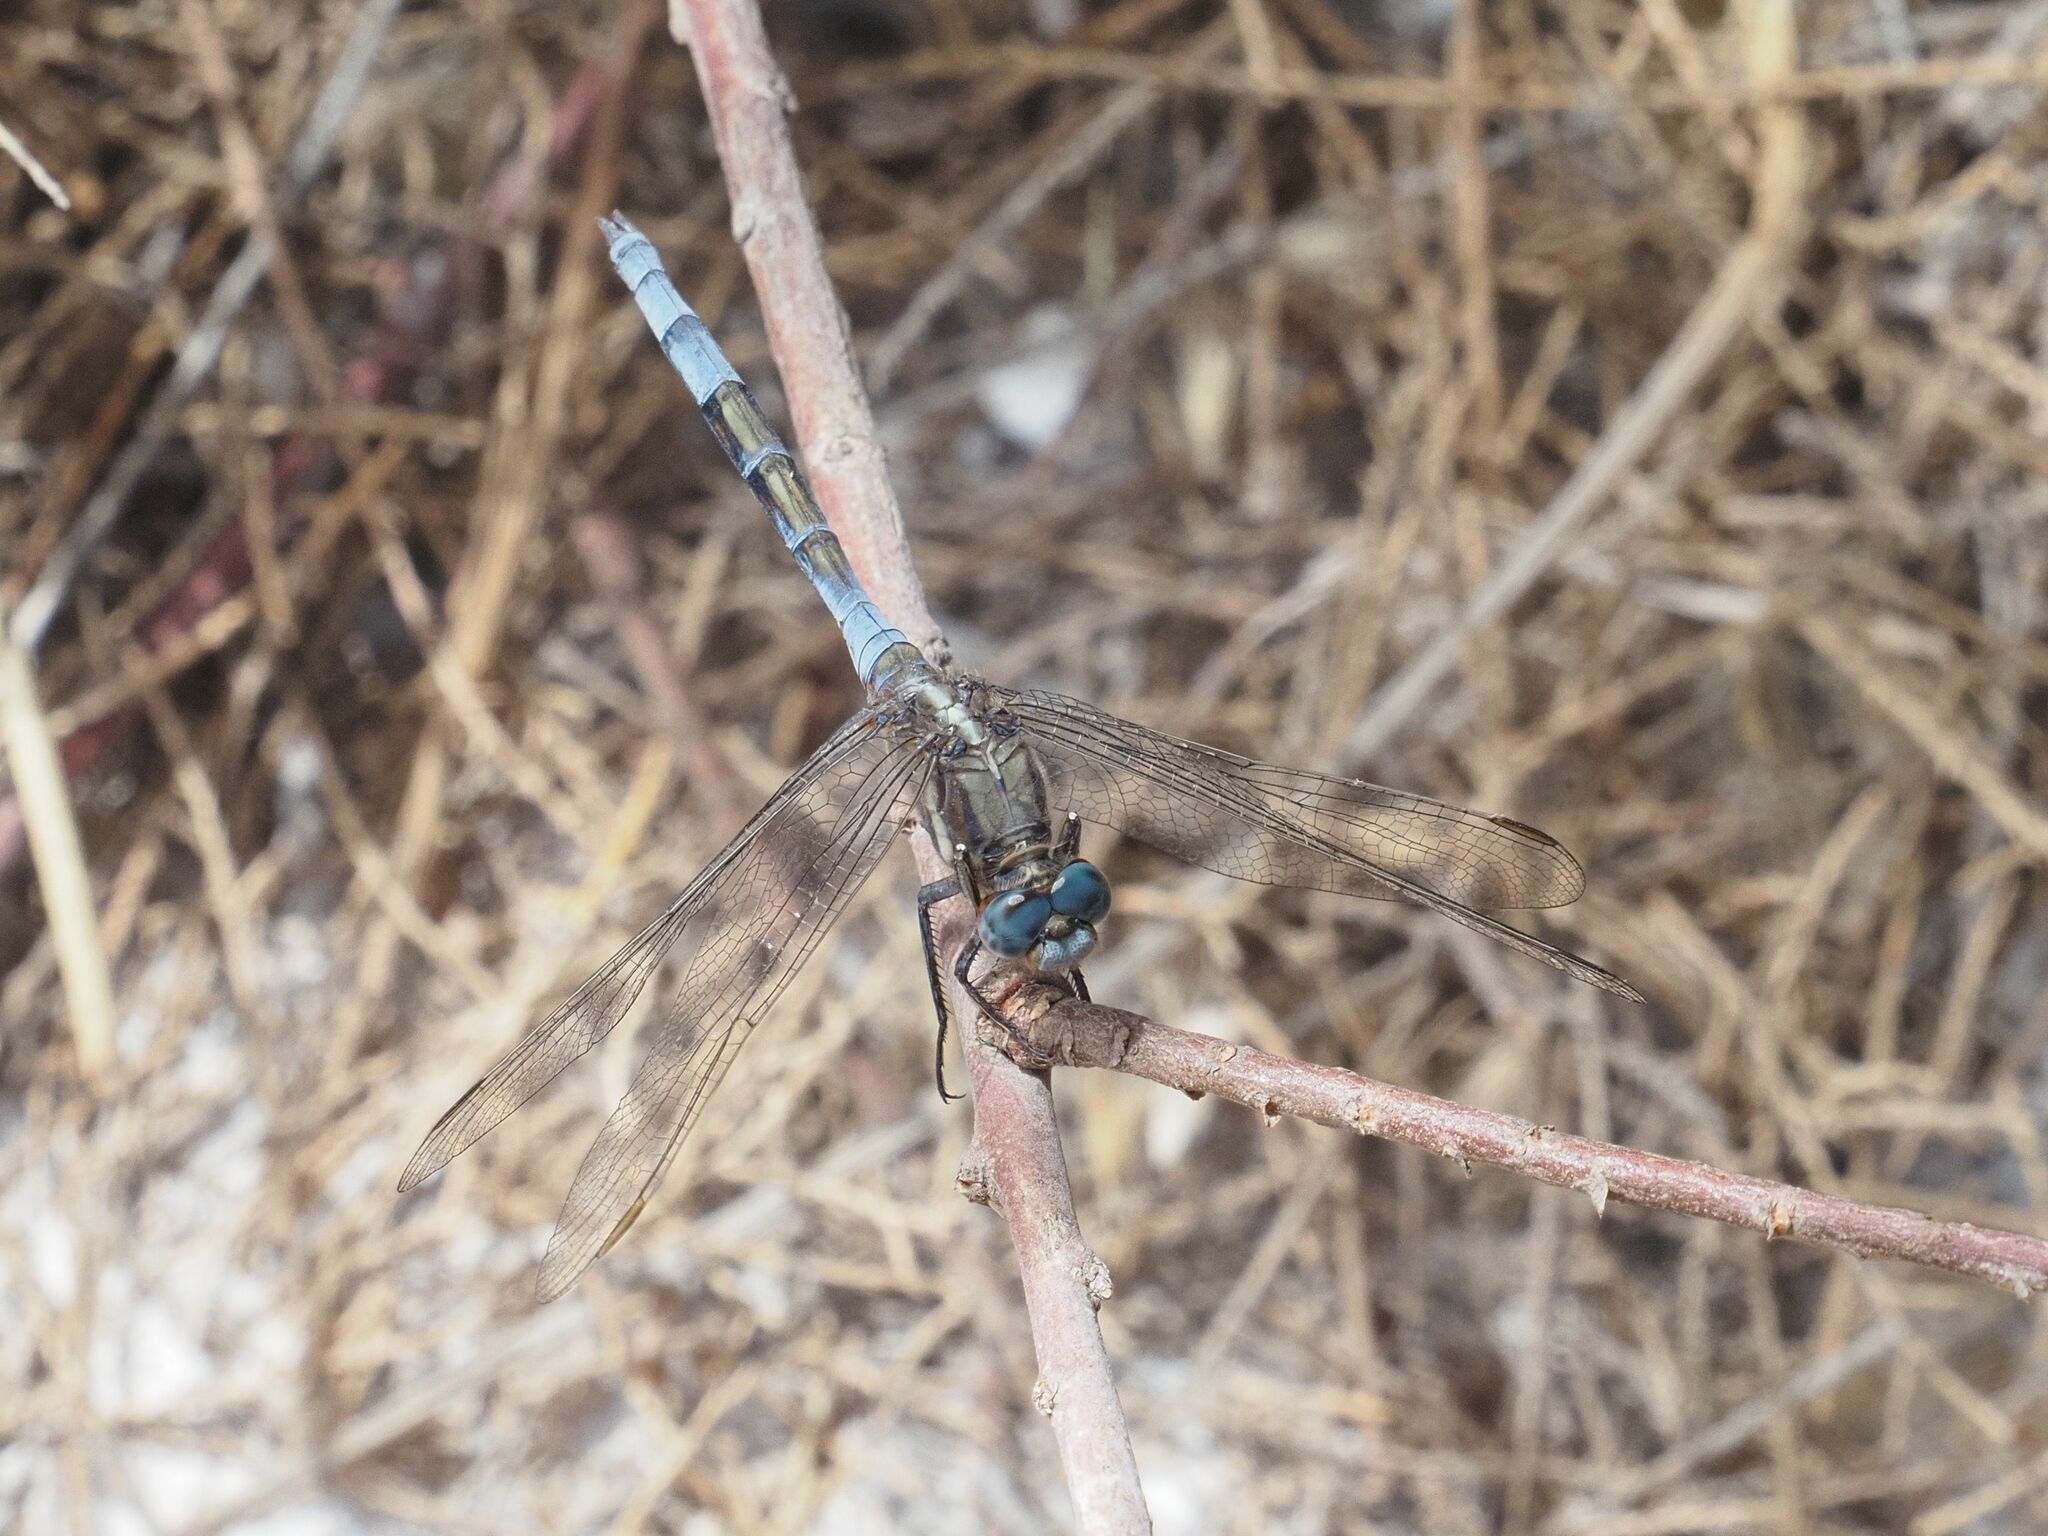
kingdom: Animalia
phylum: Arthropoda
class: Insecta
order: Odonata
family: Libellulidae
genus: Orthetrum
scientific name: Orthetrum chrysostigma
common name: Epaulet skimmer
